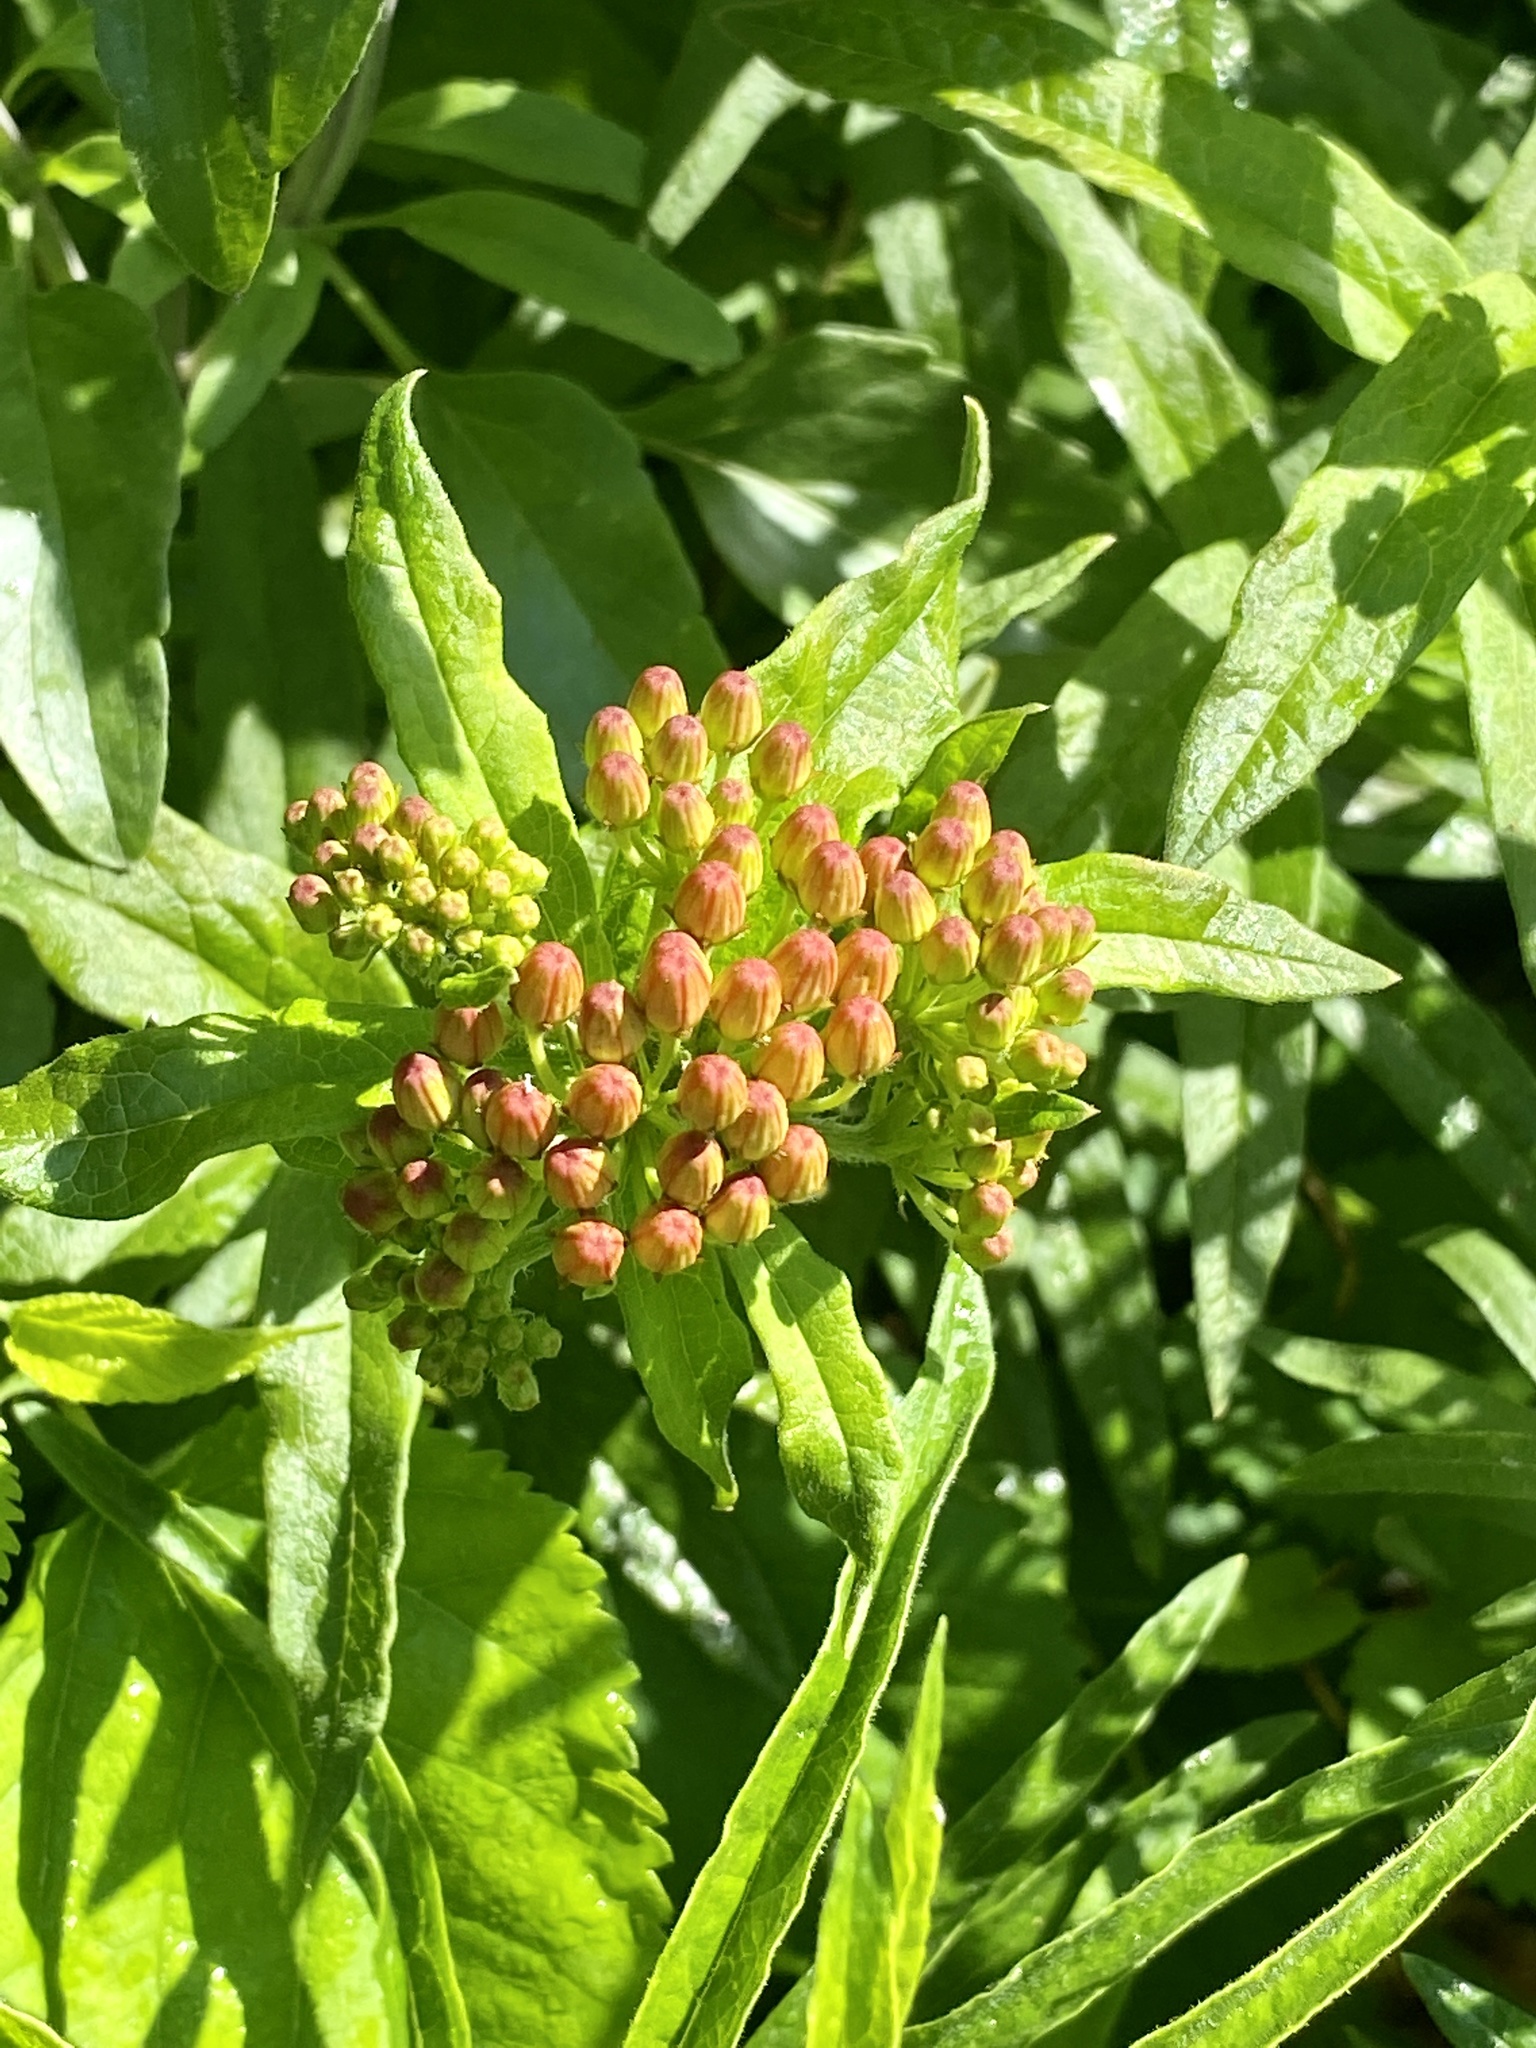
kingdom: Plantae
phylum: Tracheophyta
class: Magnoliopsida
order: Gentianales
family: Apocynaceae
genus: Asclepias
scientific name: Asclepias tuberosa
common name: Butterfly milkweed
